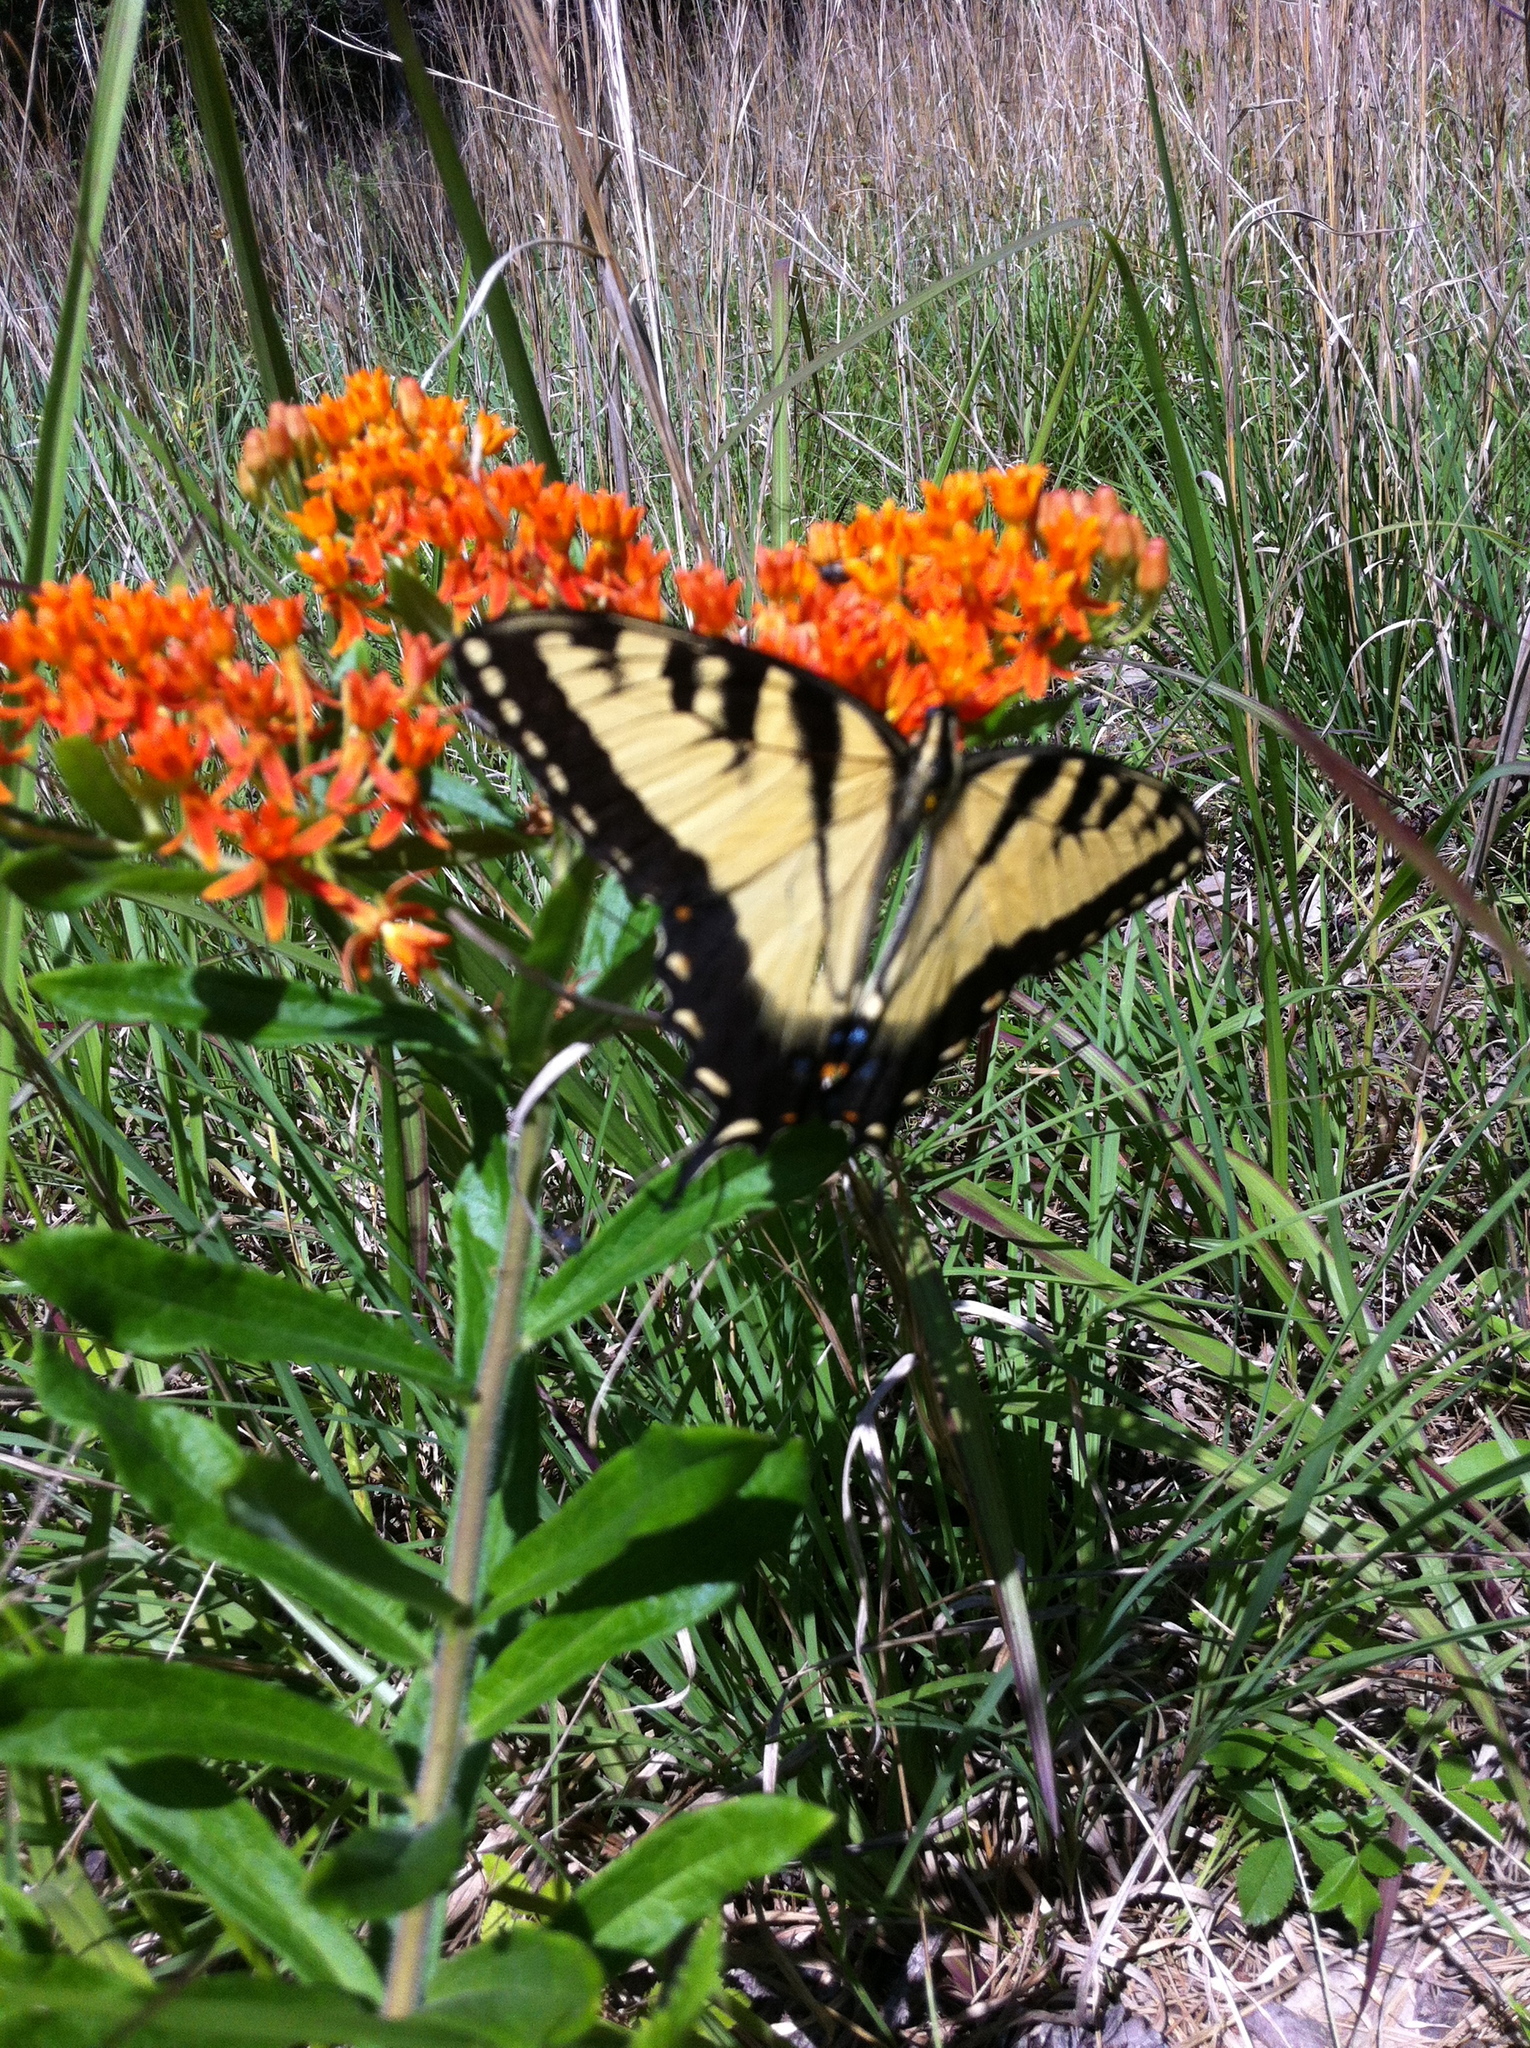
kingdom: Animalia
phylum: Arthropoda
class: Insecta
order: Lepidoptera
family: Papilionidae
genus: Papilio
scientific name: Papilio glaucus
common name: Tiger swallowtail
